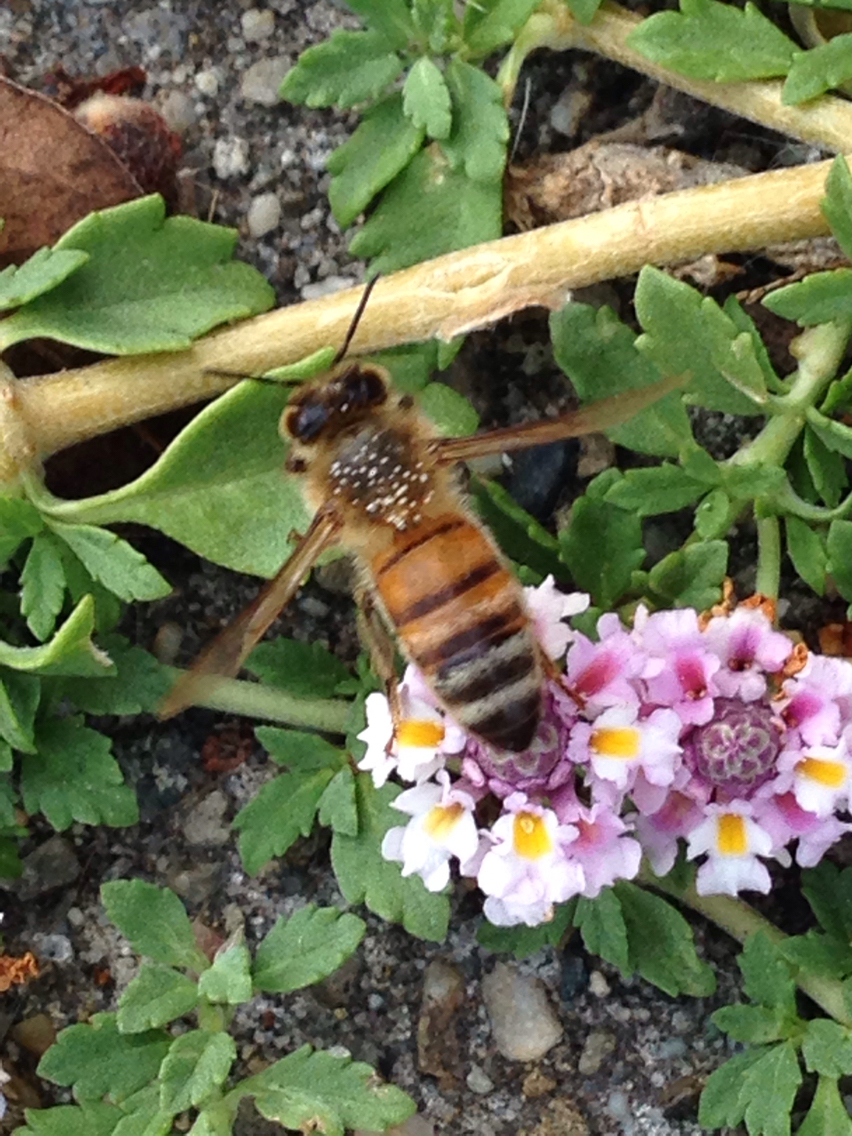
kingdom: Animalia
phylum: Arthropoda
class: Insecta
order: Hymenoptera
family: Apidae
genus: Apis
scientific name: Apis mellifera
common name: Honey bee
